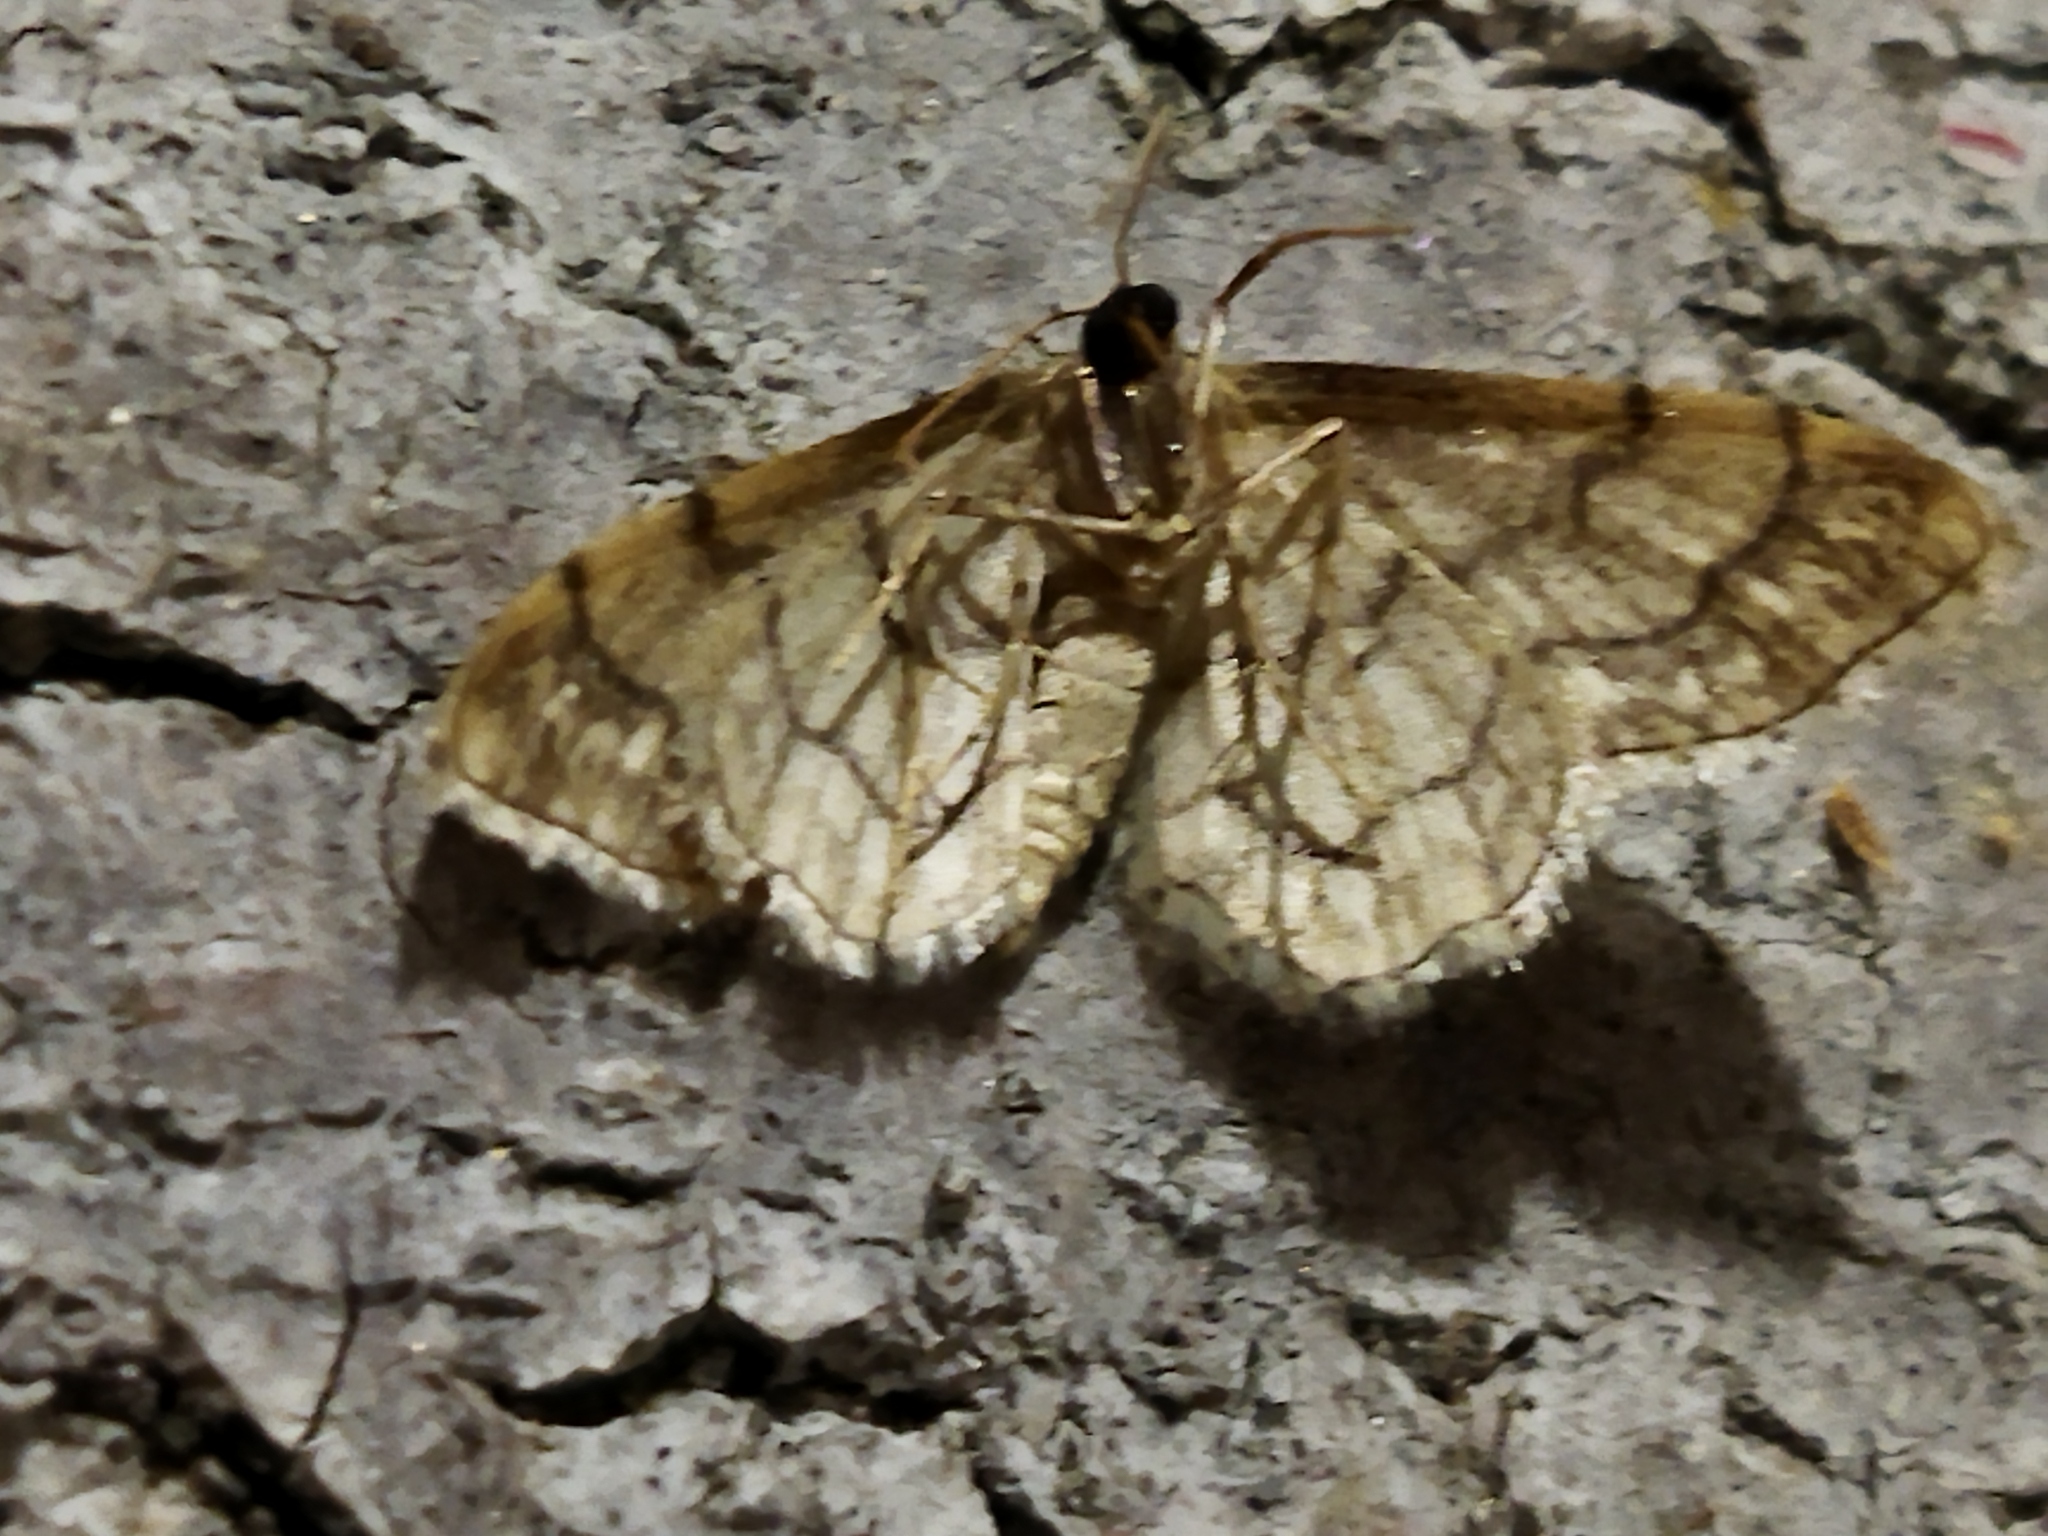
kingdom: Animalia
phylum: Arthropoda
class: Insecta
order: Lepidoptera
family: Geometridae
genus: Idaea
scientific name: Idaea moniliata
